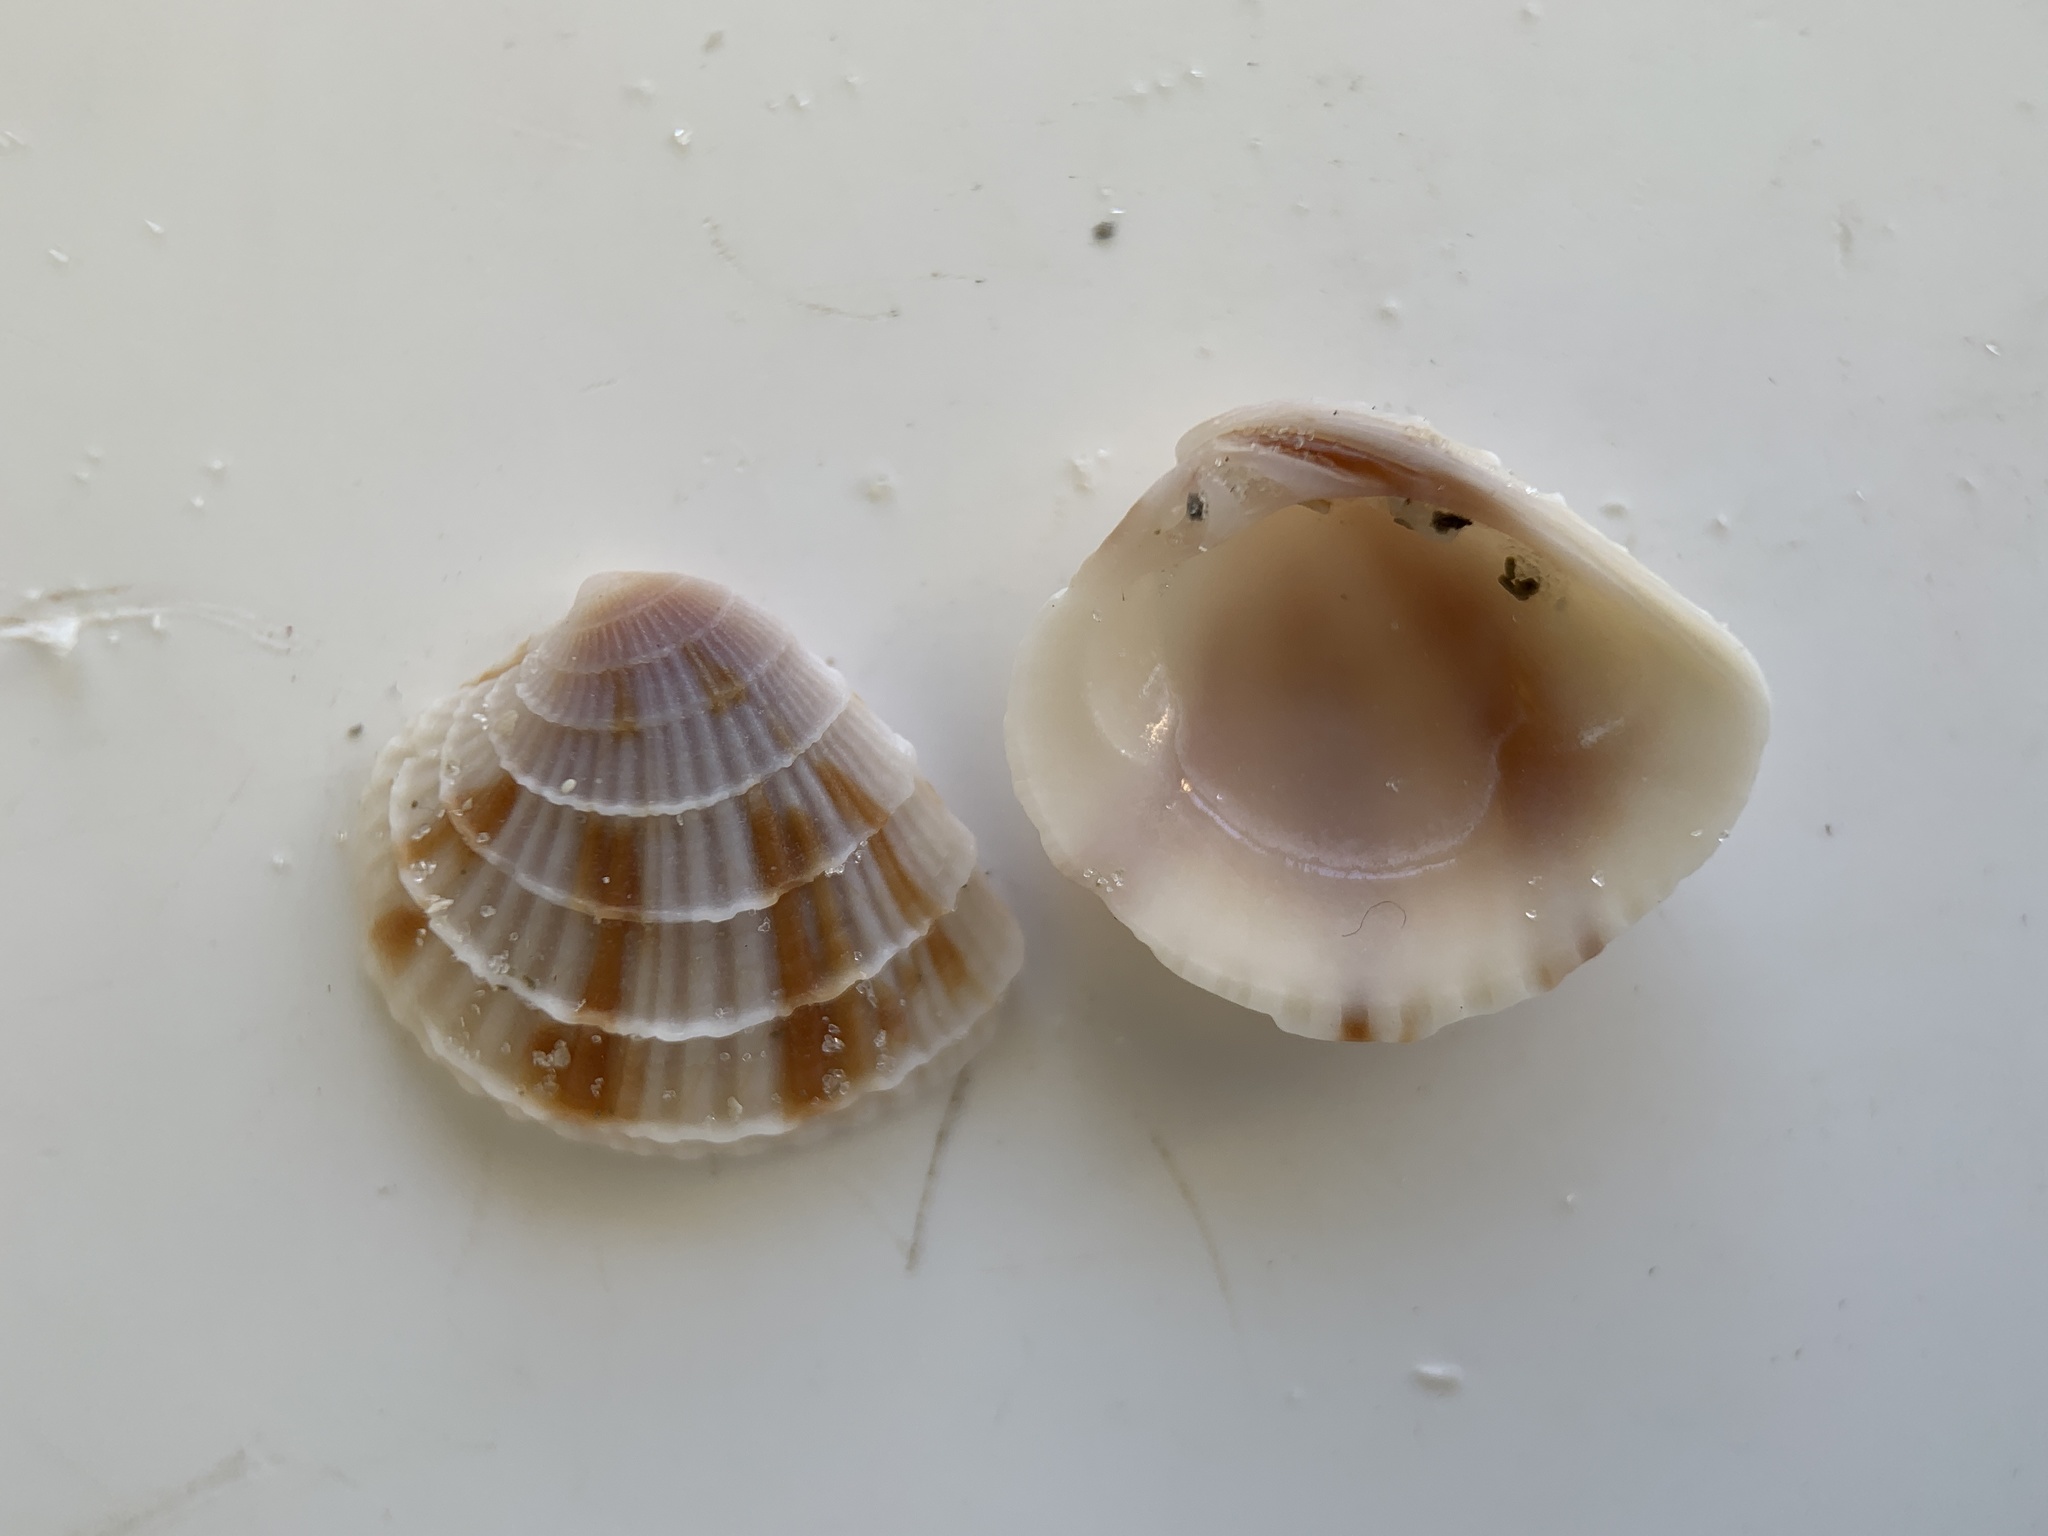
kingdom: Animalia
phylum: Mollusca
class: Bivalvia
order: Venerida
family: Veneridae
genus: Chione
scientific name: Chione elevata
